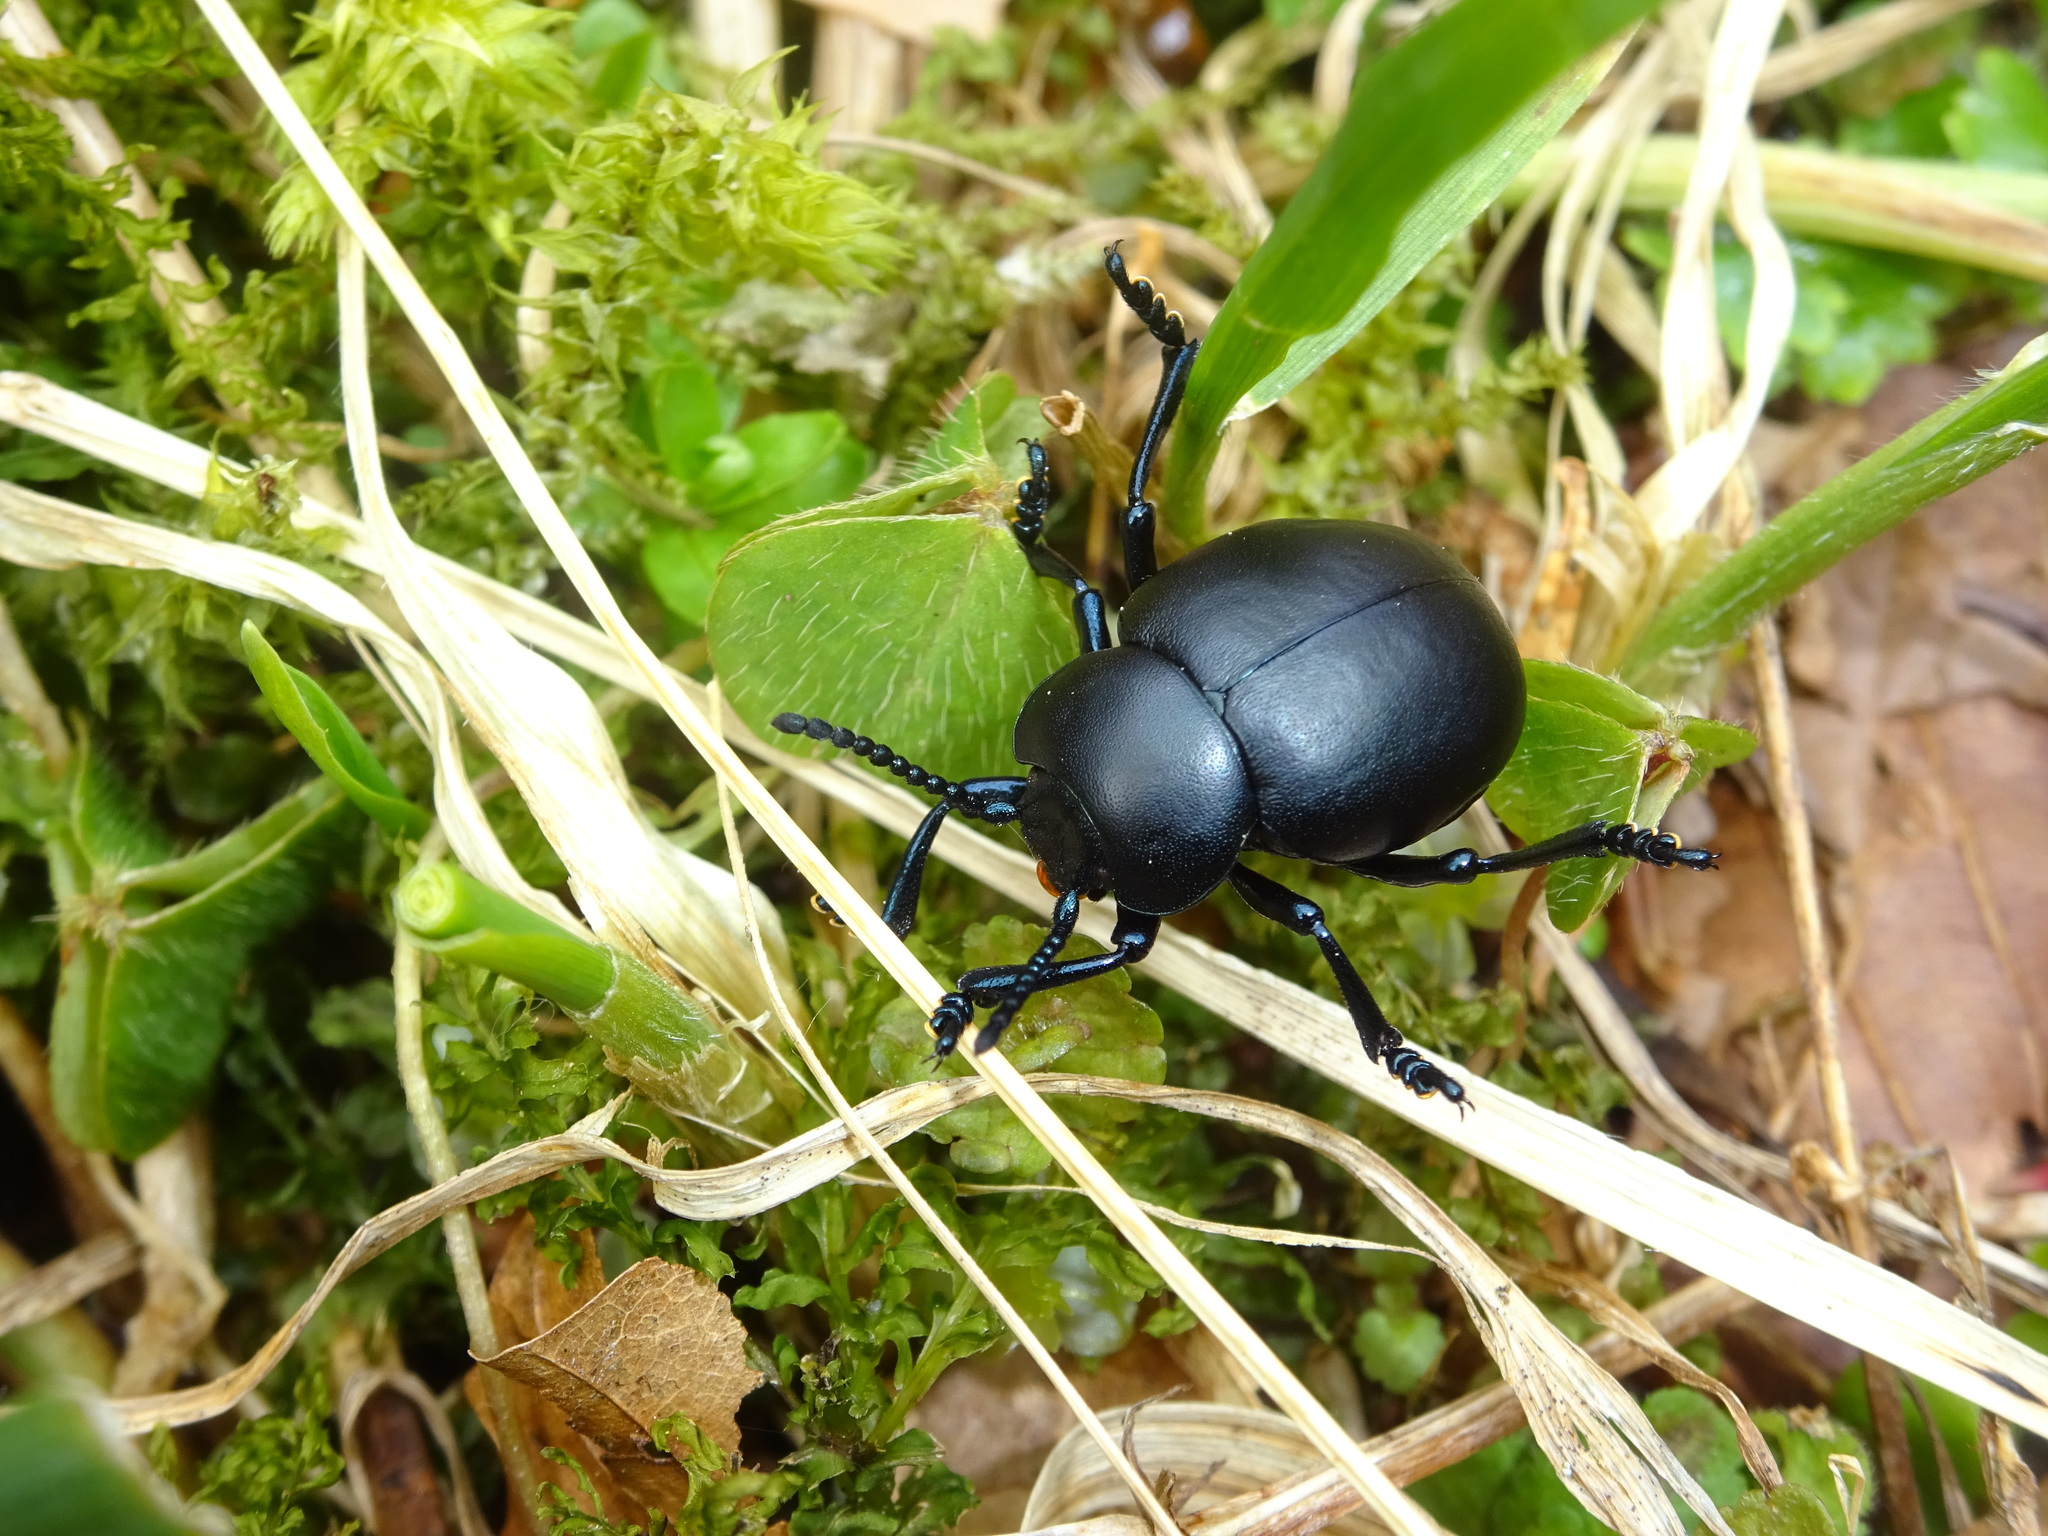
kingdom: Animalia
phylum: Arthropoda
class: Insecta
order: Coleoptera
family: Chrysomelidae
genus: Timarcha
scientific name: Timarcha tenebricosa
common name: Bloody-nosed beetle
